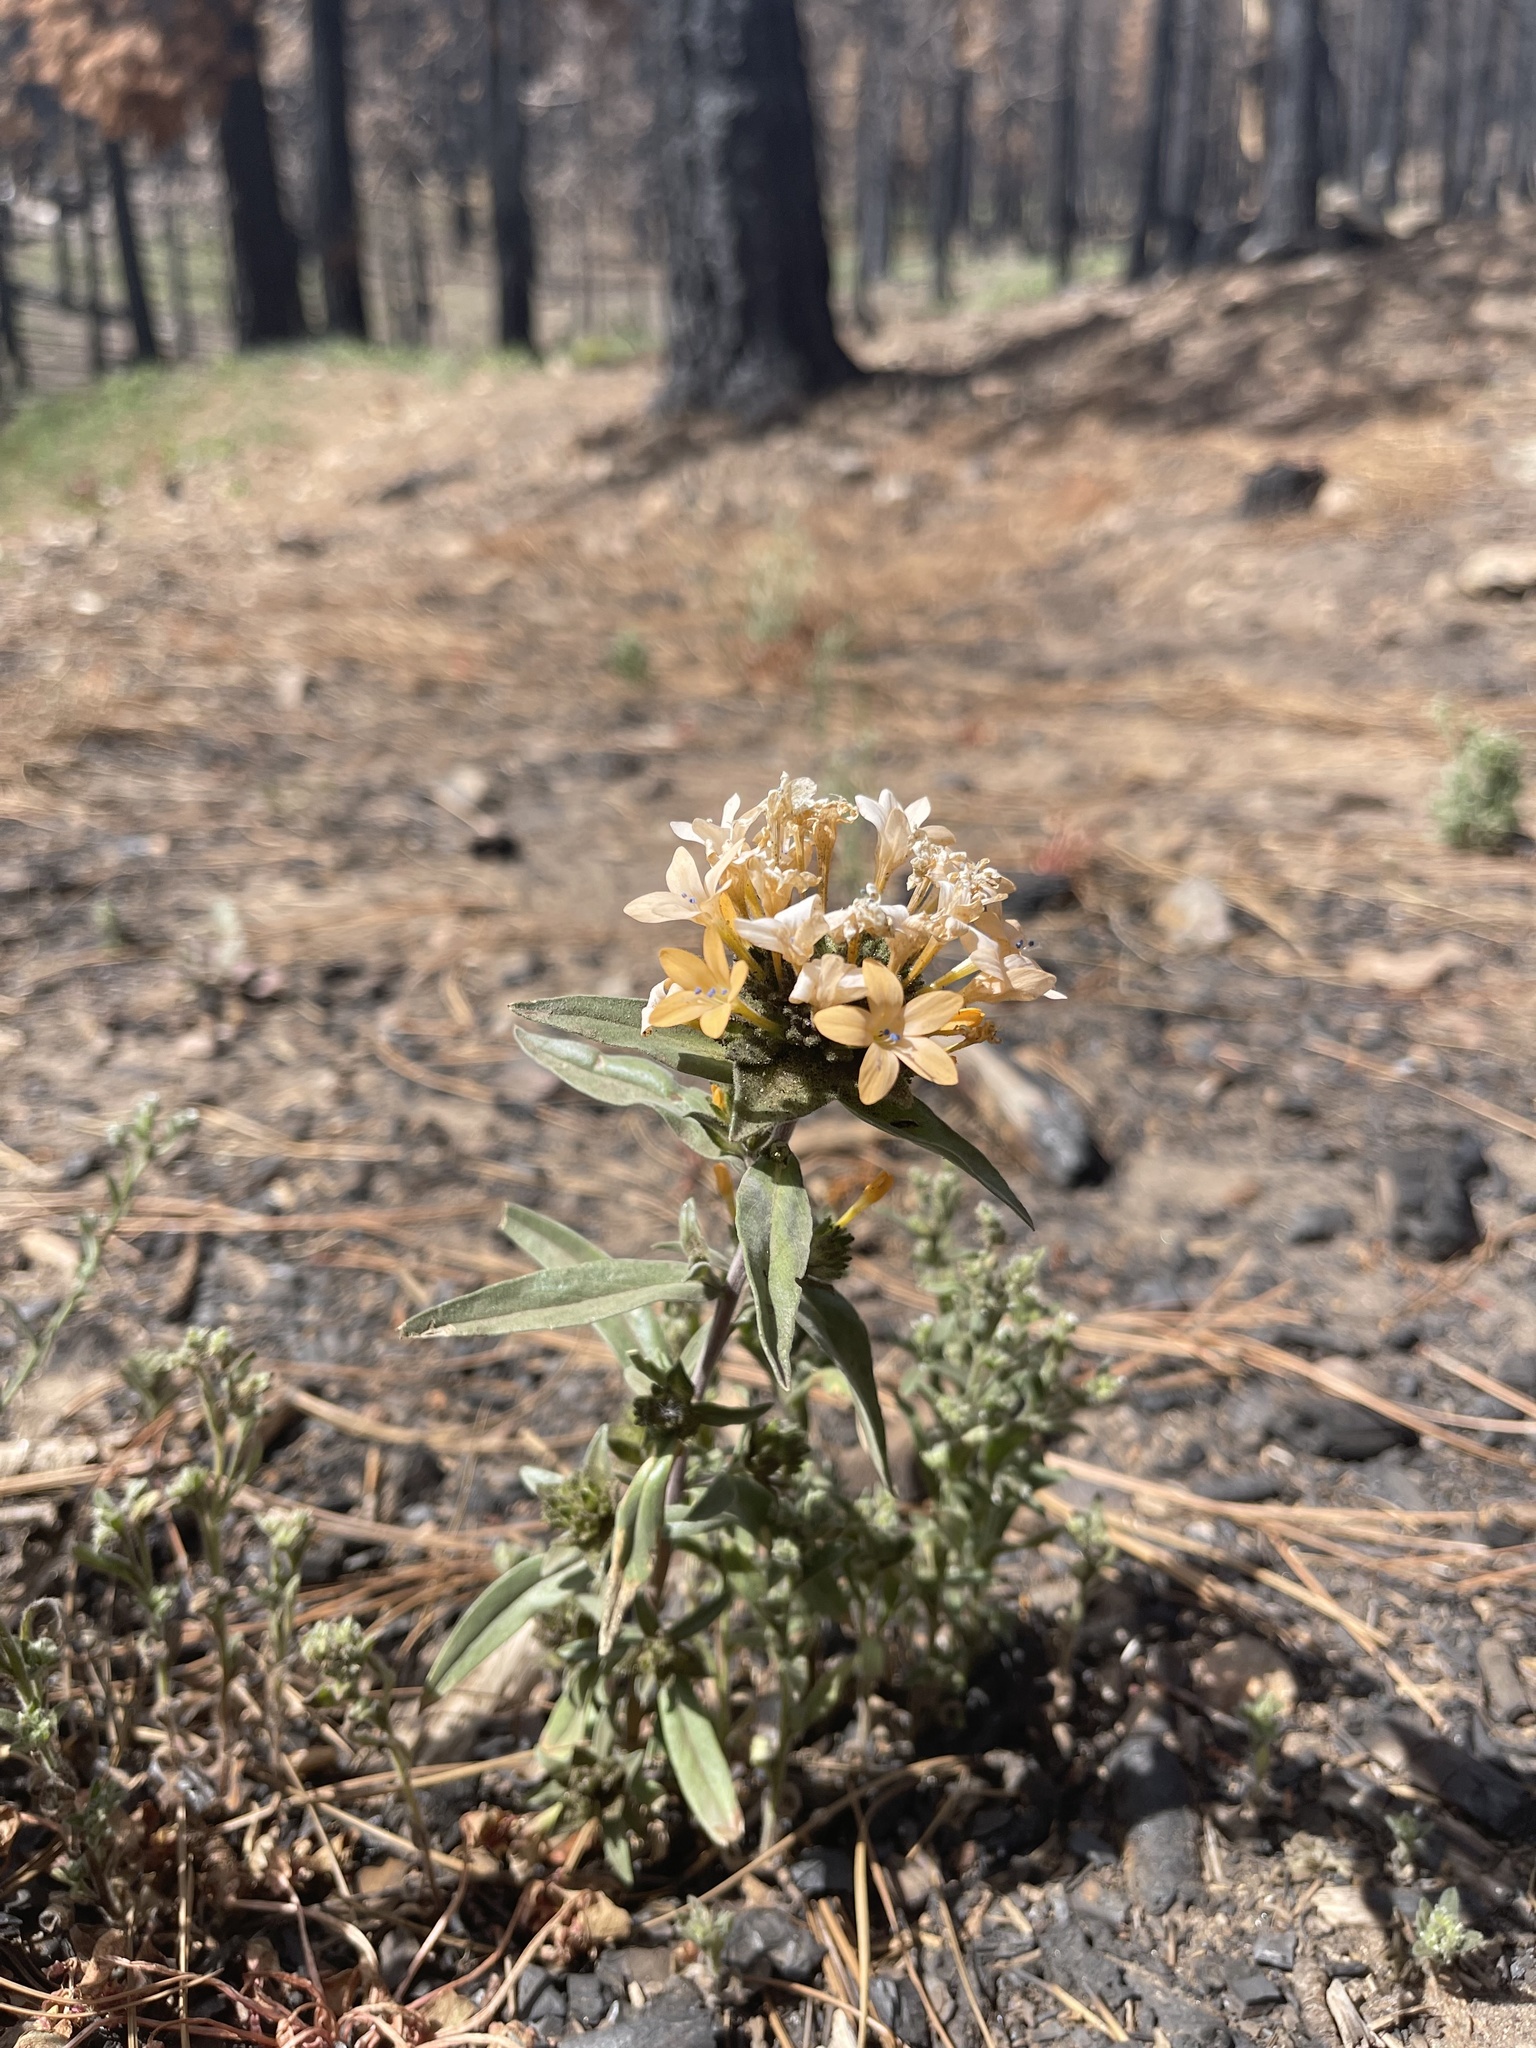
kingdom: Plantae
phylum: Tracheophyta
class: Magnoliopsida
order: Ericales
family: Polemoniaceae
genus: Collomia
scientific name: Collomia grandiflora
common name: California strawflower
